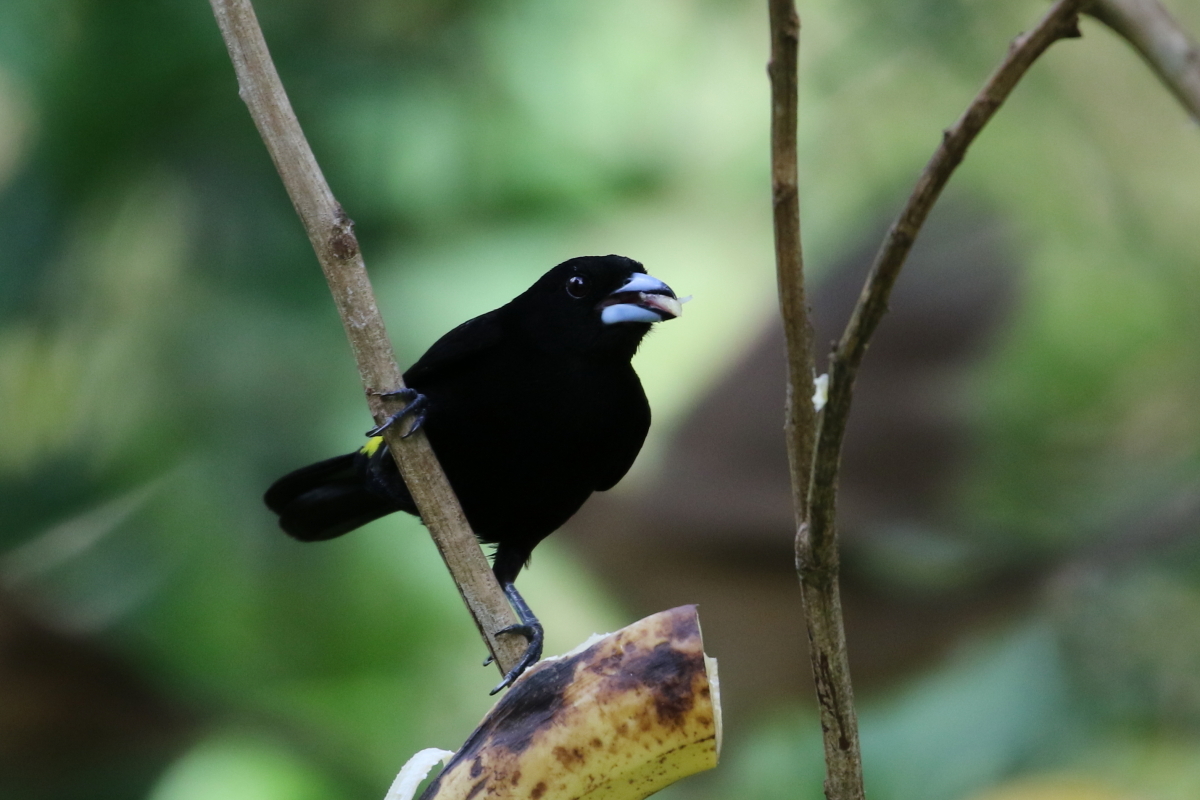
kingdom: Animalia
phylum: Chordata
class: Aves
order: Passeriformes
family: Thraupidae
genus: Ramphocelus
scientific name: Ramphocelus flammigerus
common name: Flame-rumped tanager
